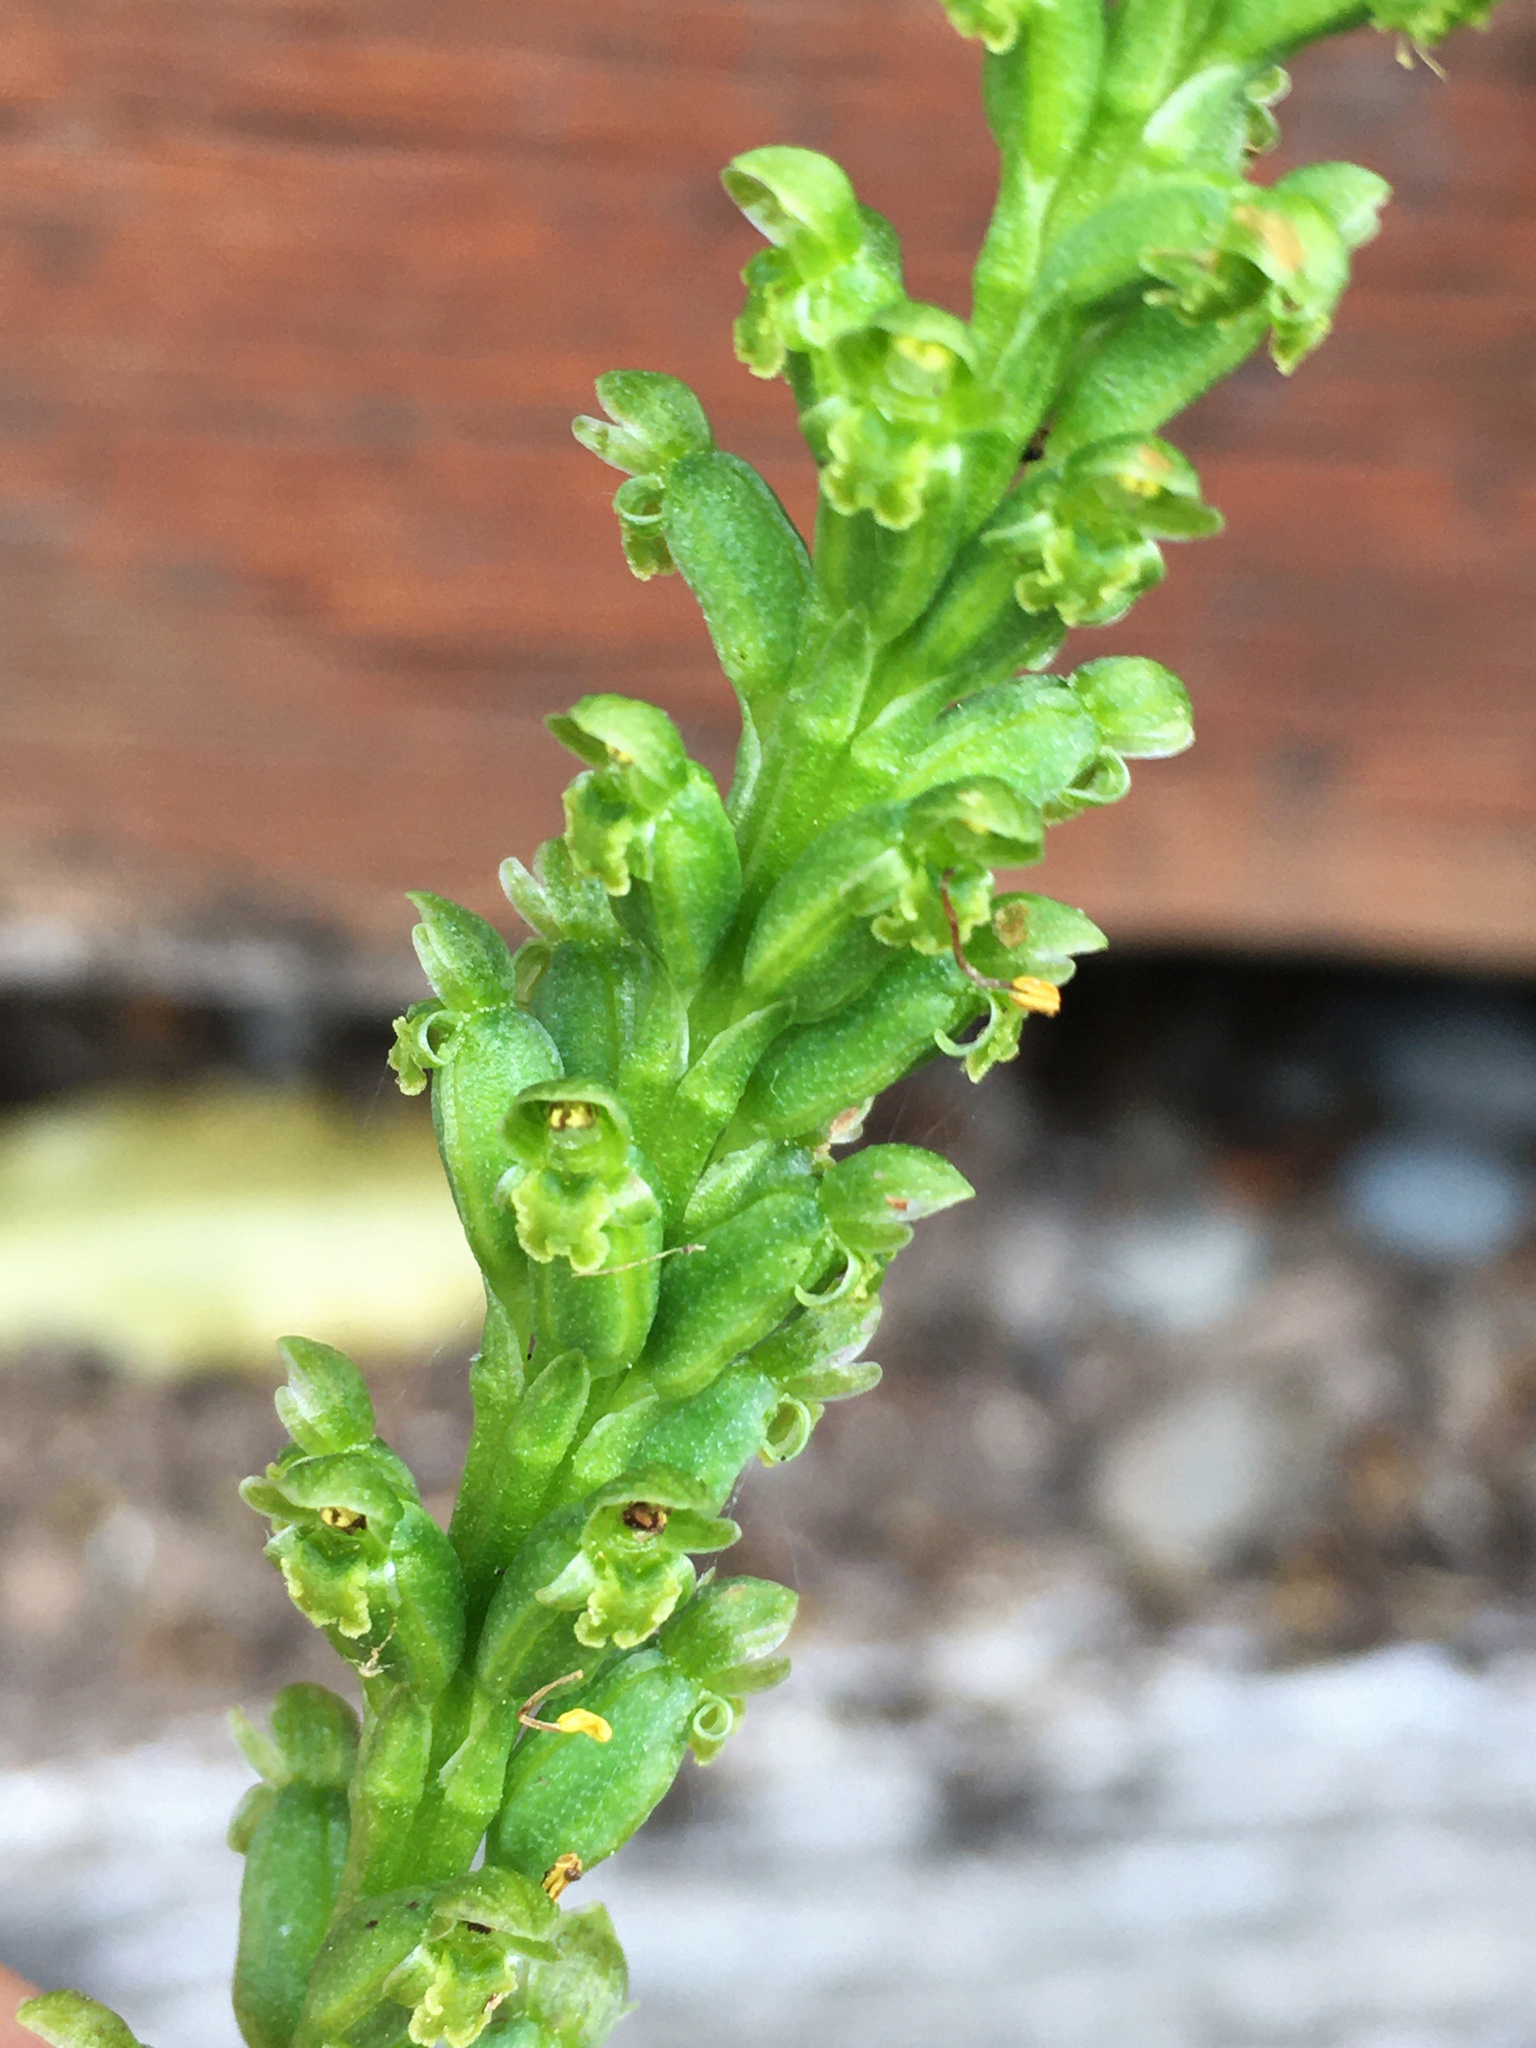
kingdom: Plantae
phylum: Tracheophyta
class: Liliopsida
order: Asparagales
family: Orchidaceae
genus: Microtis
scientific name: Microtis unifolia
